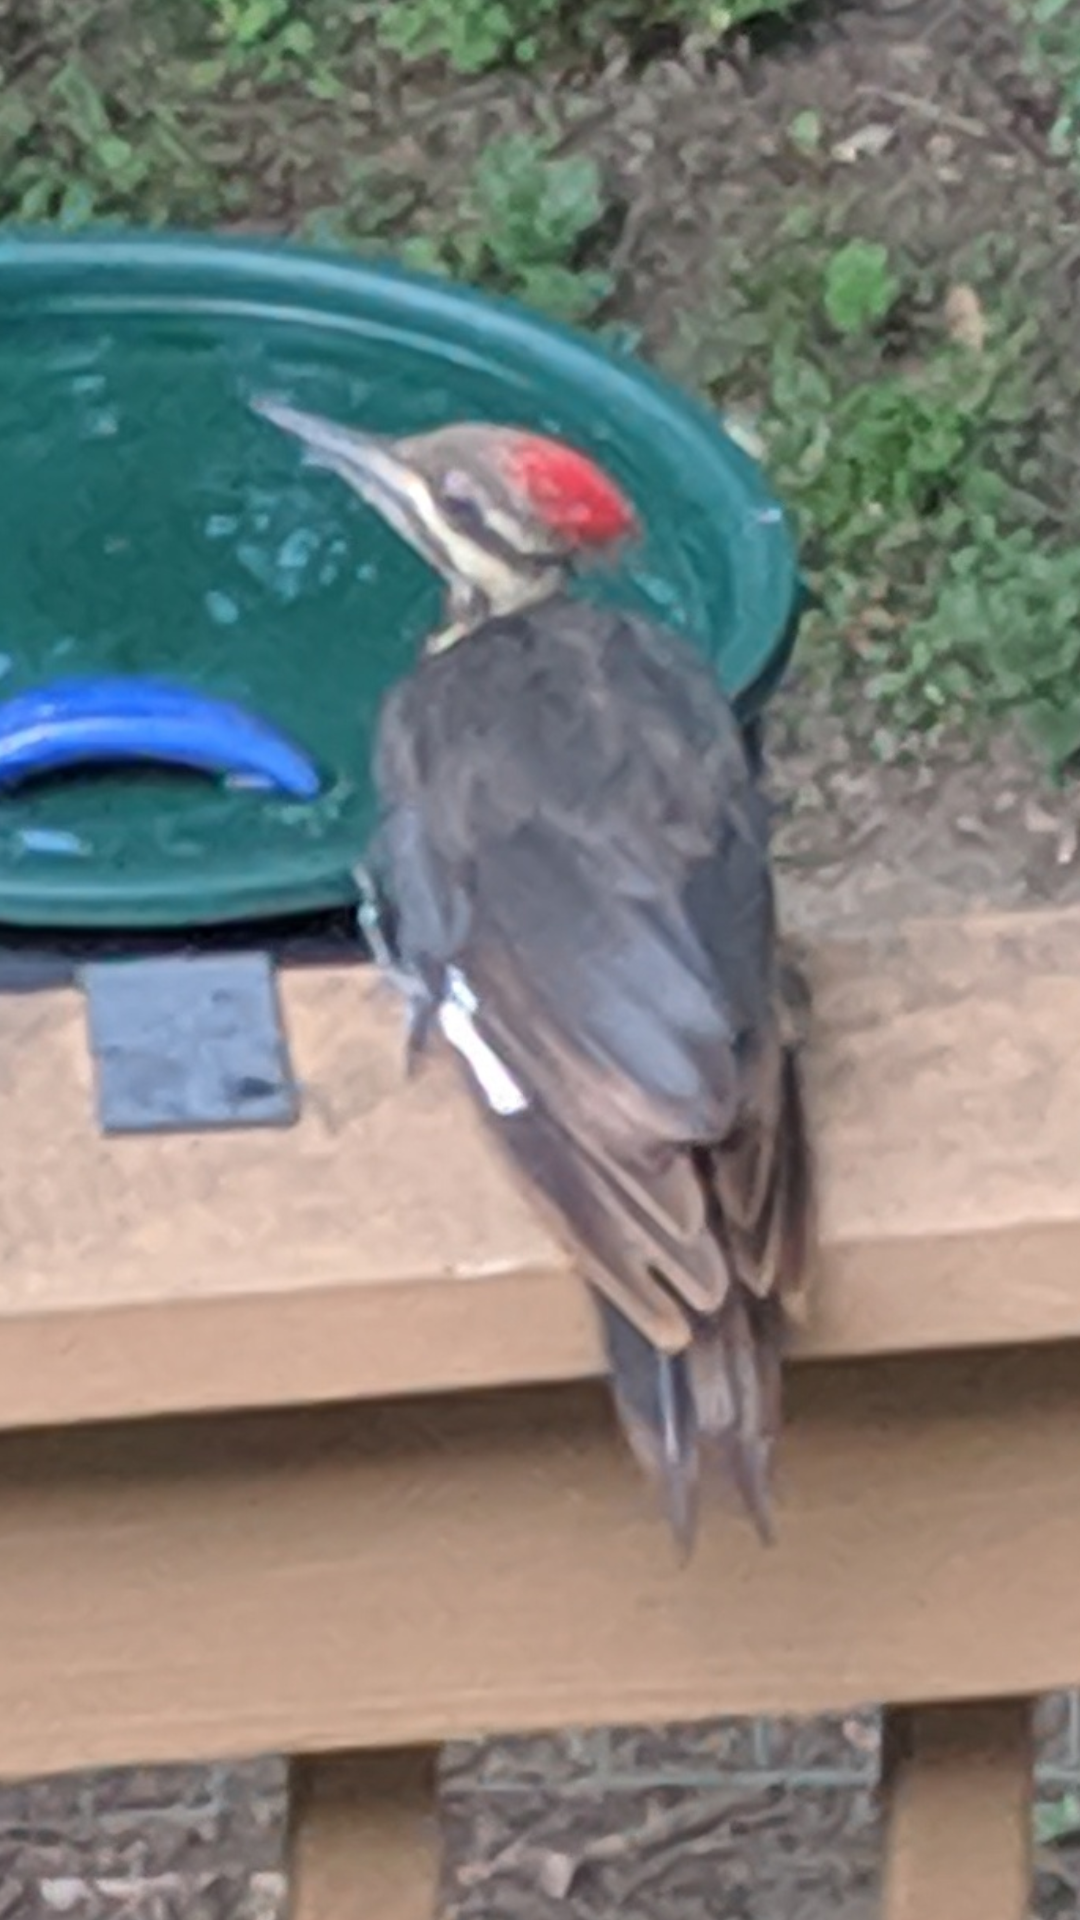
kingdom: Animalia
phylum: Chordata
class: Aves
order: Piciformes
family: Picidae
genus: Dryocopus
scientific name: Dryocopus pileatus
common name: Pileated woodpecker
